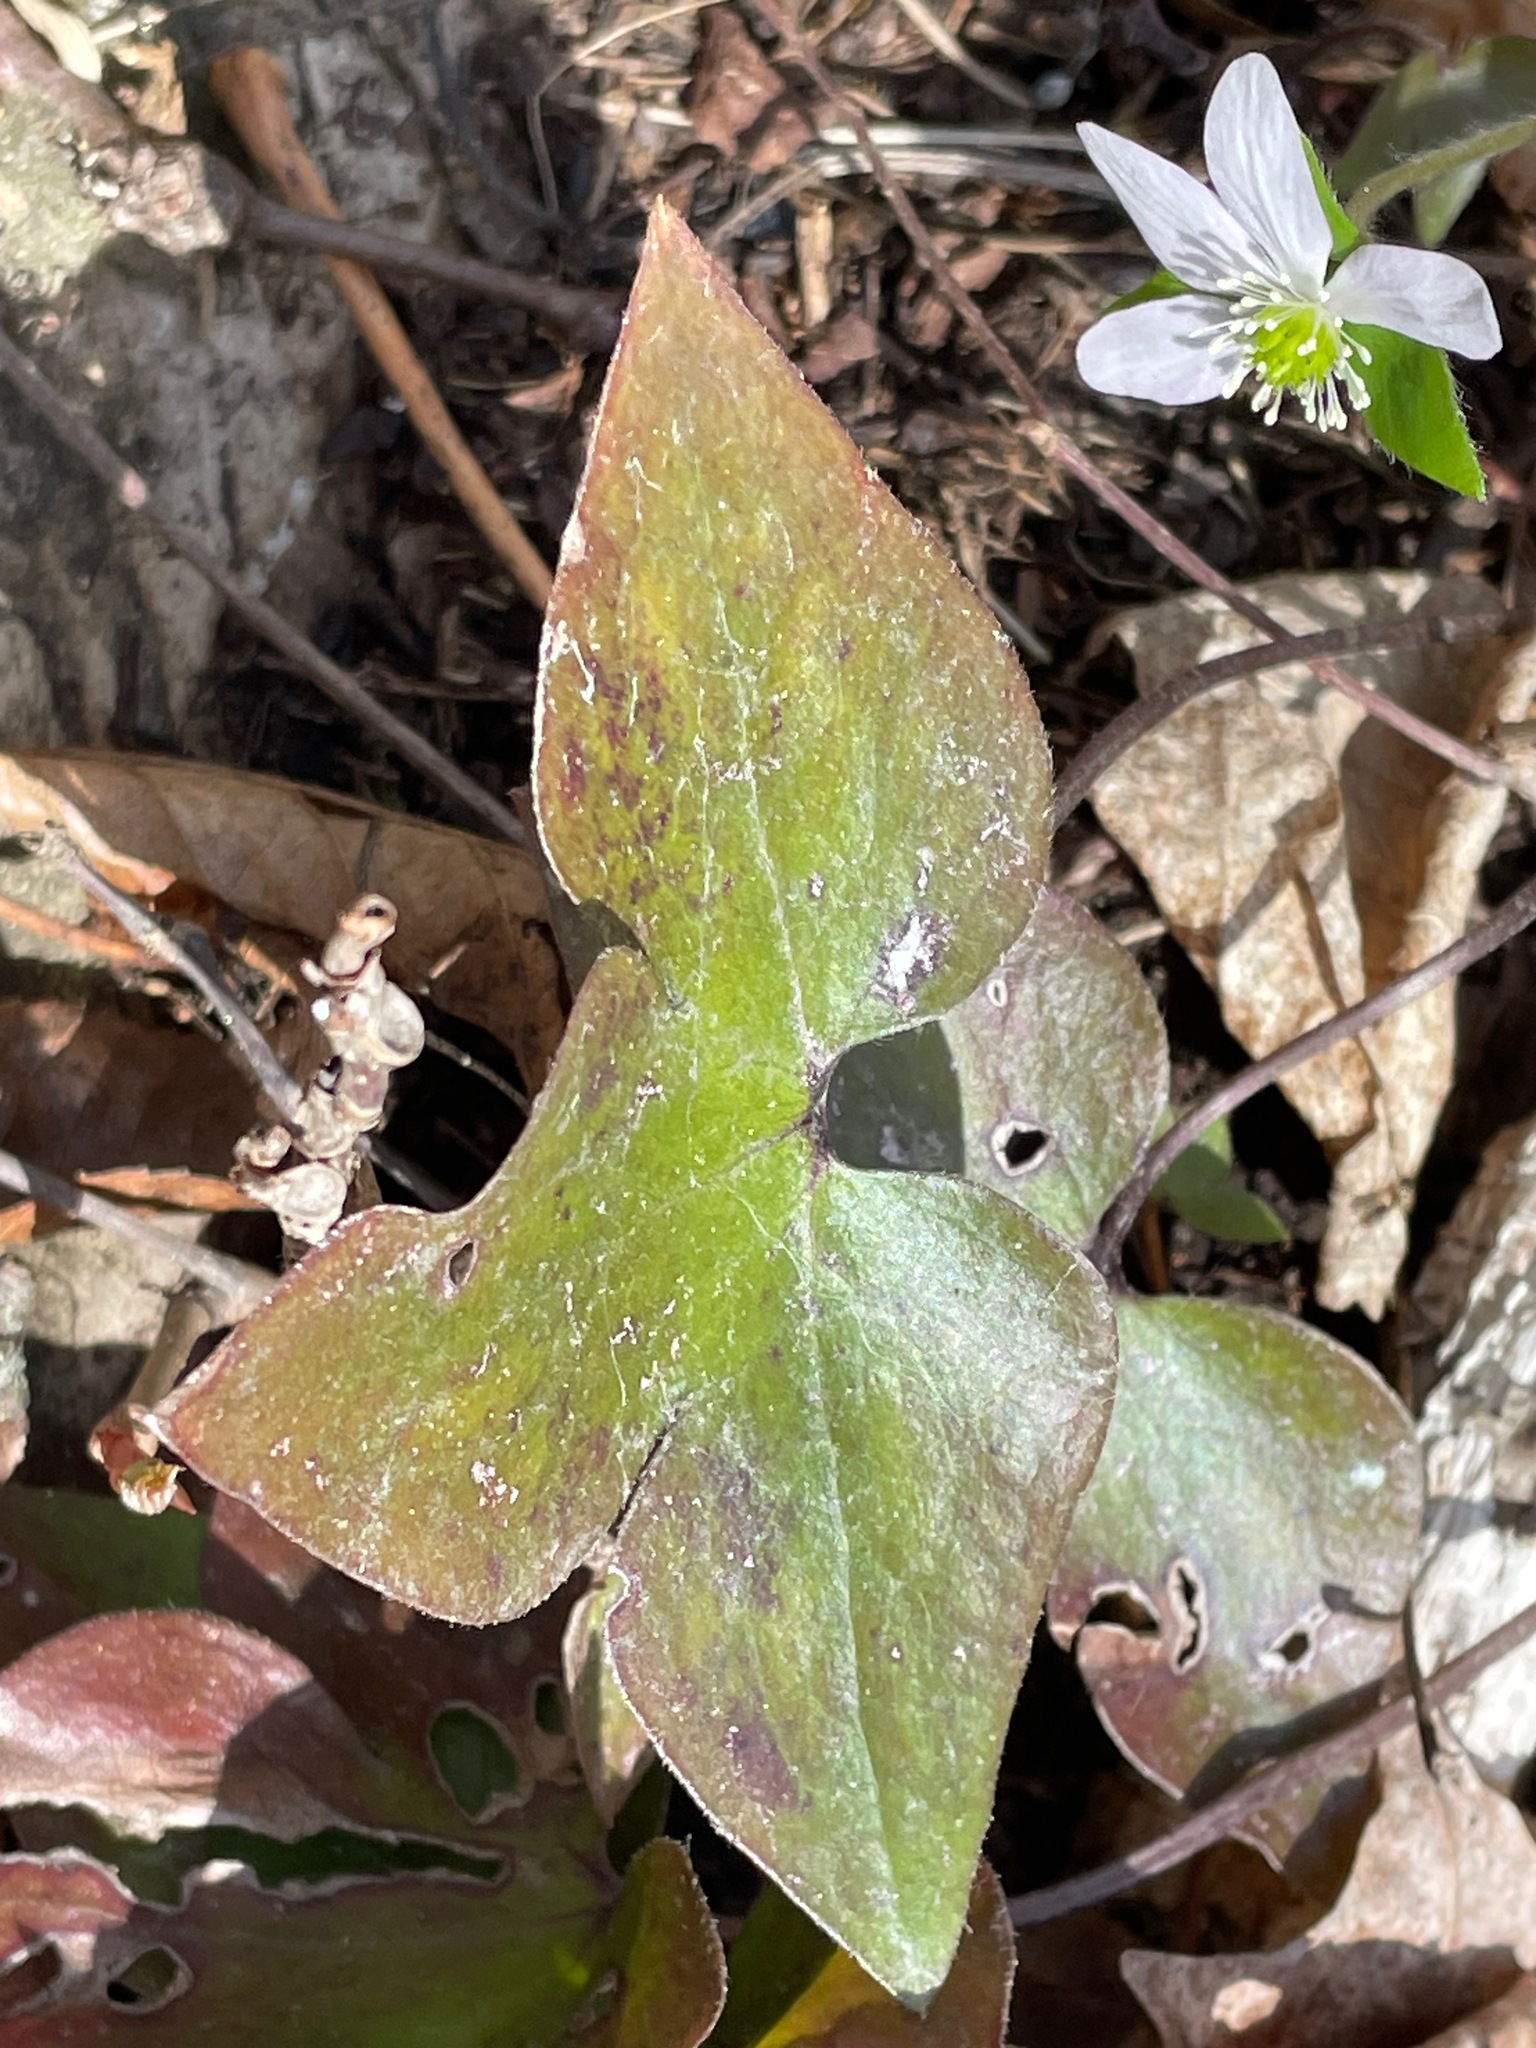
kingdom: Plantae
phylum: Tracheophyta
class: Magnoliopsida
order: Ranunculales
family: Ranunculaceae
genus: Hepatica
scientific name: Hepatica acutiloba
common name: Sharp-lobed hepatica
